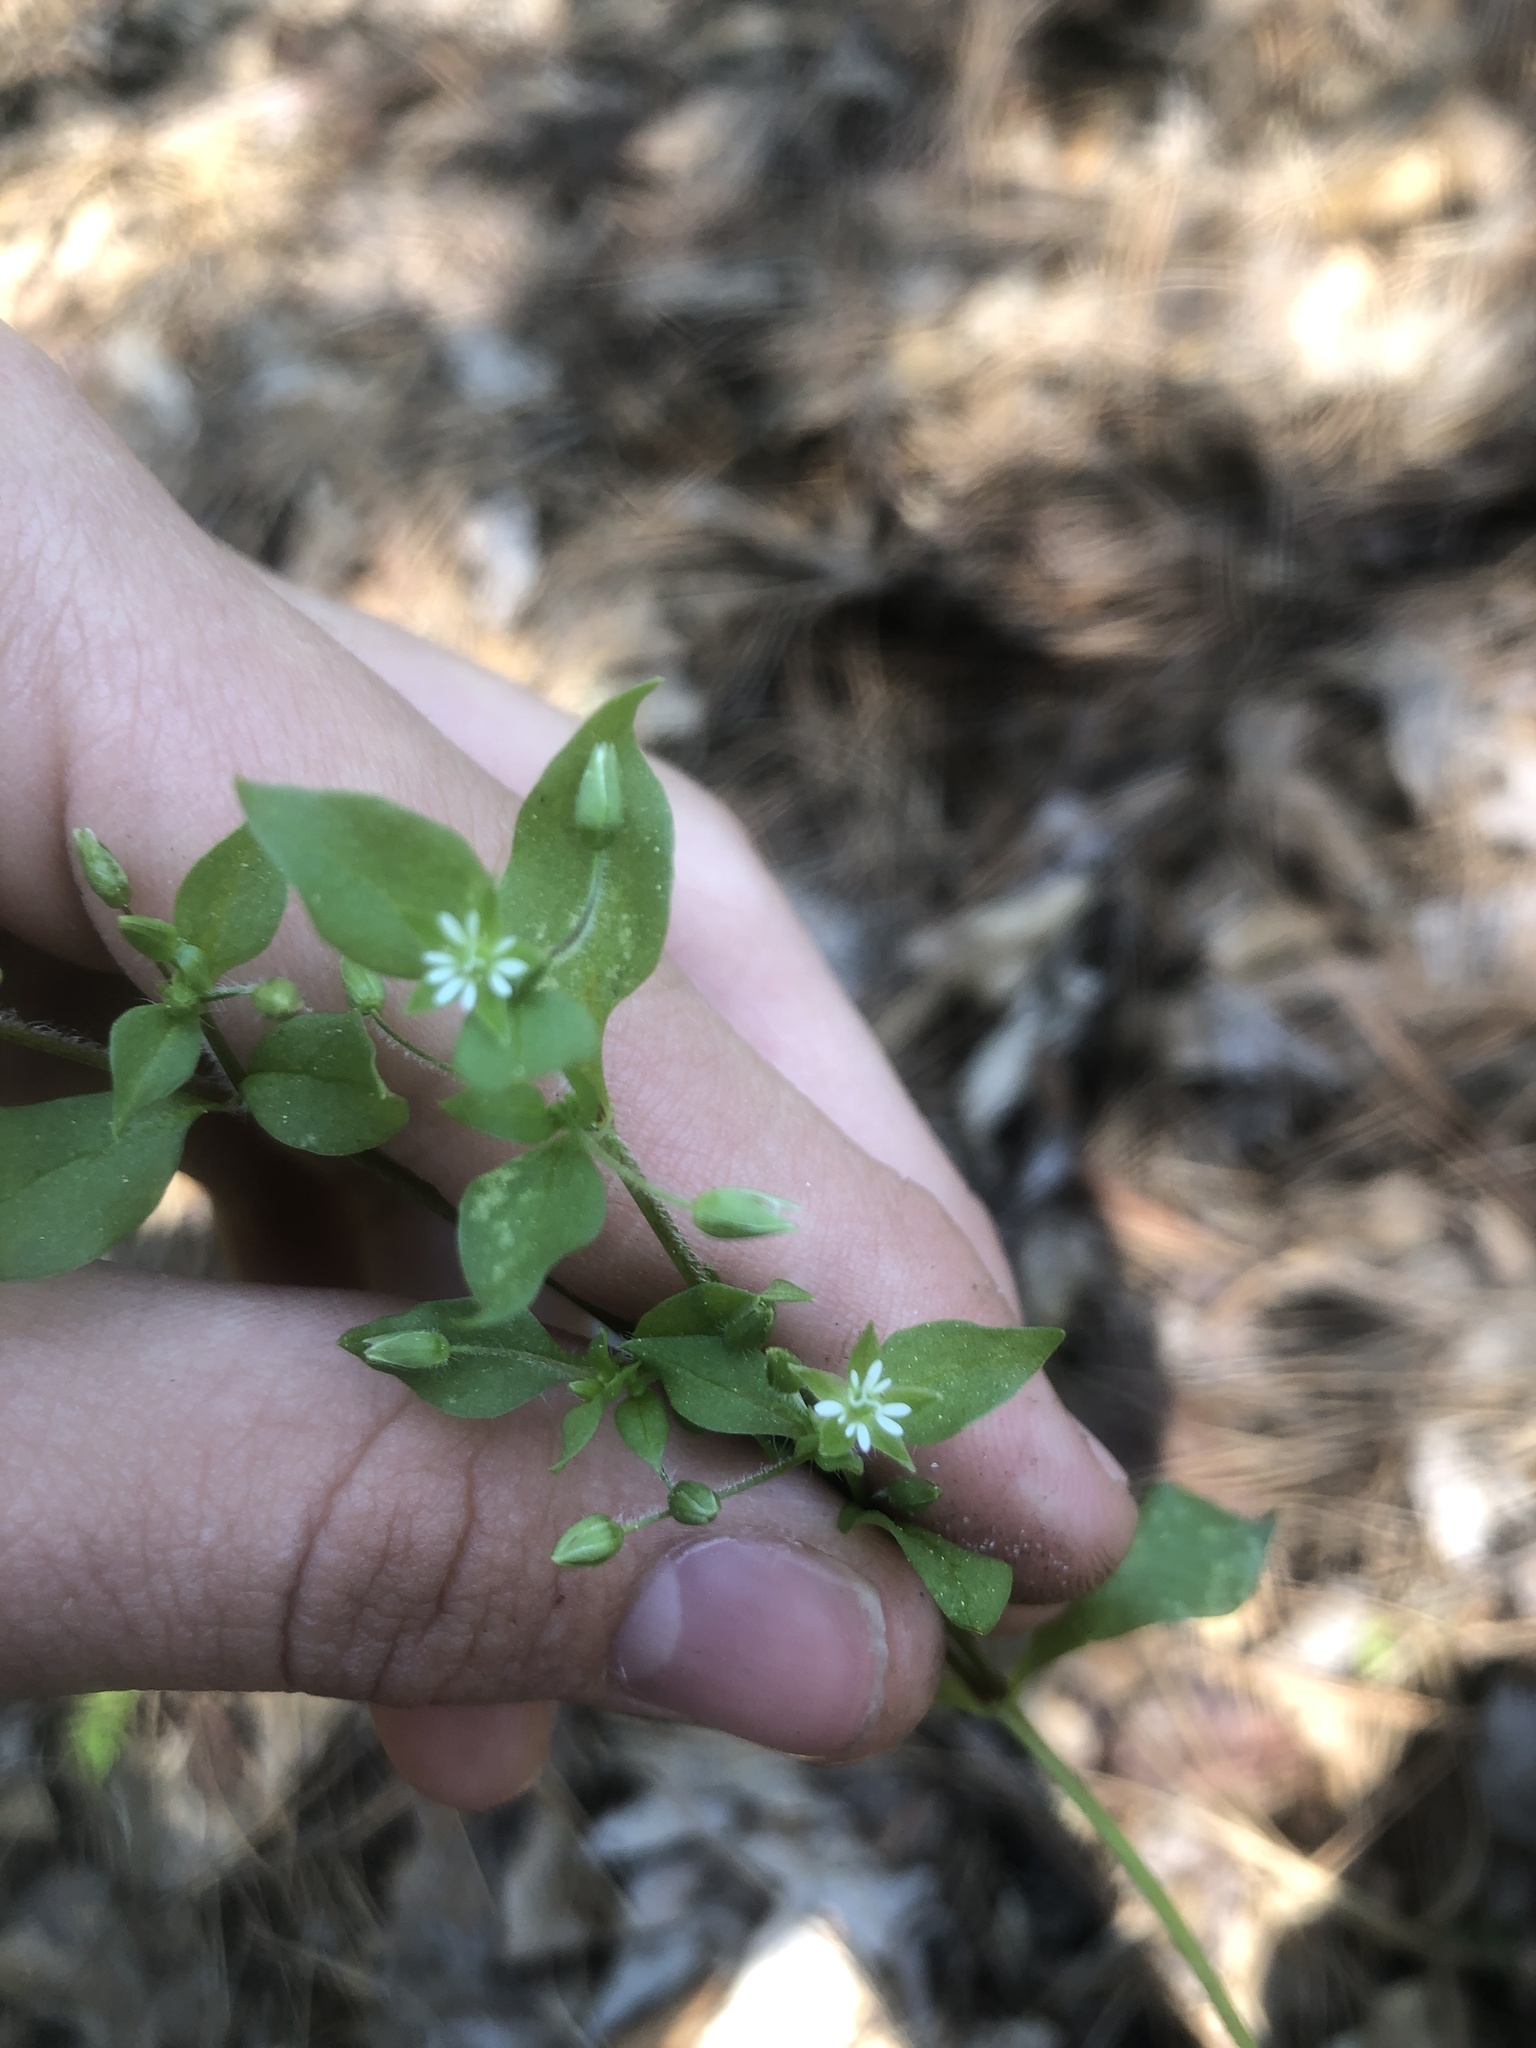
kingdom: Plantae
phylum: Tracheophyta
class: Magnoliopsida
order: Caryophyllales
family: Caryophyllaceae
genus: Stellaria
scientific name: Stellaria media
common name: Common chickweed
